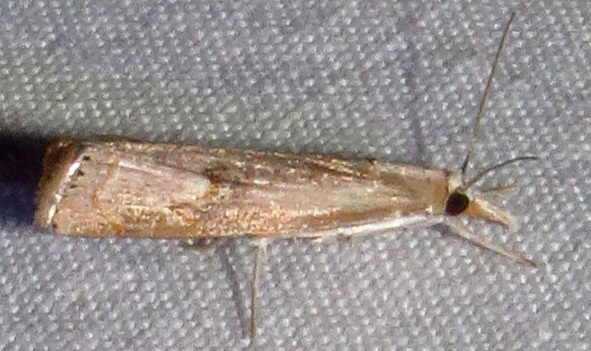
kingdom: Animalia
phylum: Arthropoda
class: Insecta
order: Lepidoptera
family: Crambidae
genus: Parapediasia
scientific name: Parapediasia teterellus
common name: Bluegrass webworm moth
